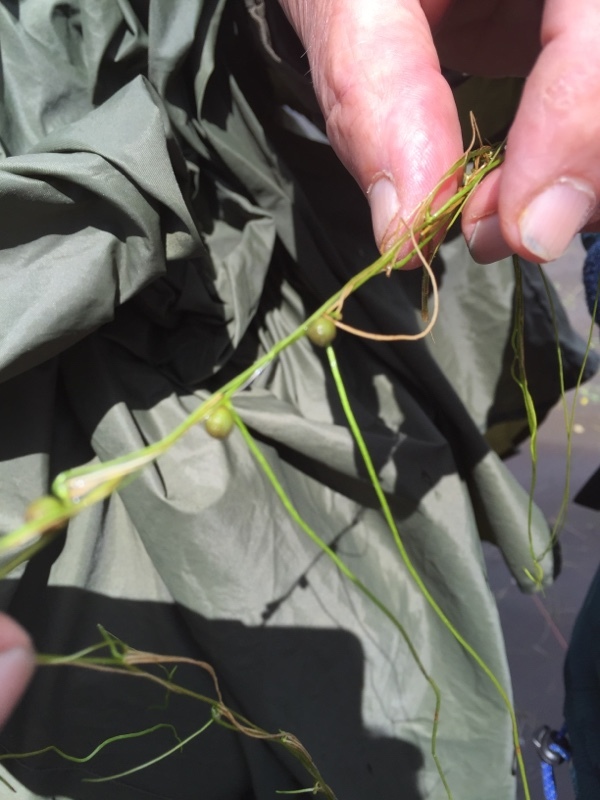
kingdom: Plantae
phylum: Tracheophyta
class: Polypodiopsida
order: Salviniales
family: Marsileaceae
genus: Pilularia
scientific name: Pilularia globulifera
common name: Pillwort
